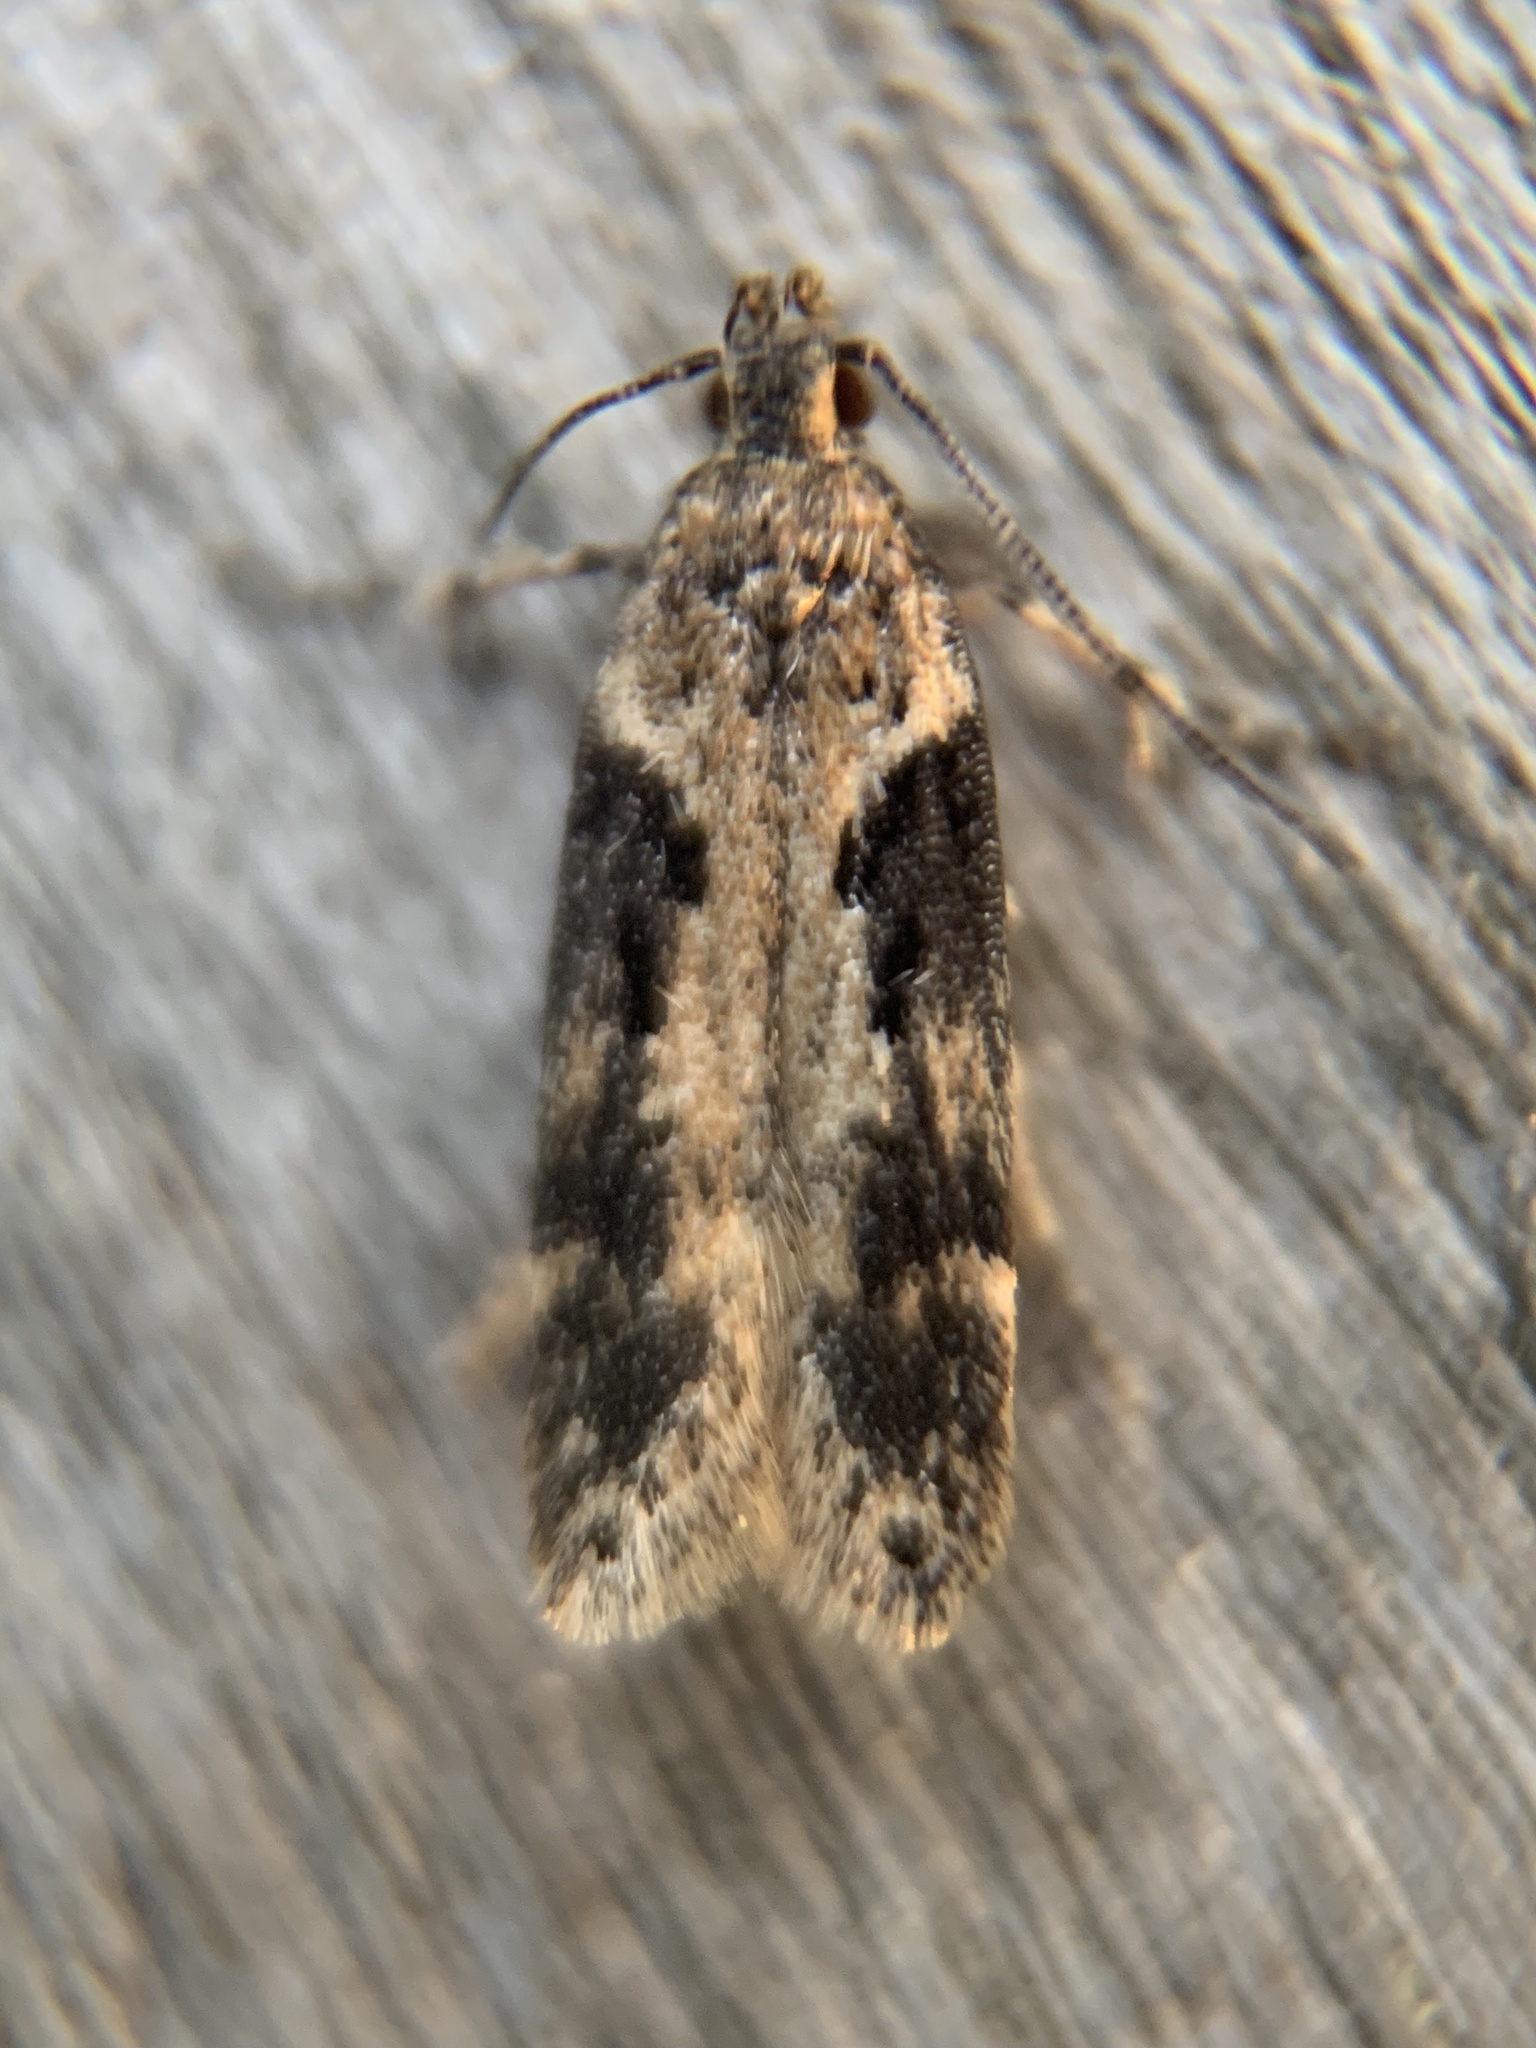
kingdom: Animalia
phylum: Arthropoda
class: Insecta
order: Lepidoptera
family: Gelechiidae
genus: Chionodes
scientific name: Chionodes mediofuscella
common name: Black-smudged chionodes moth
